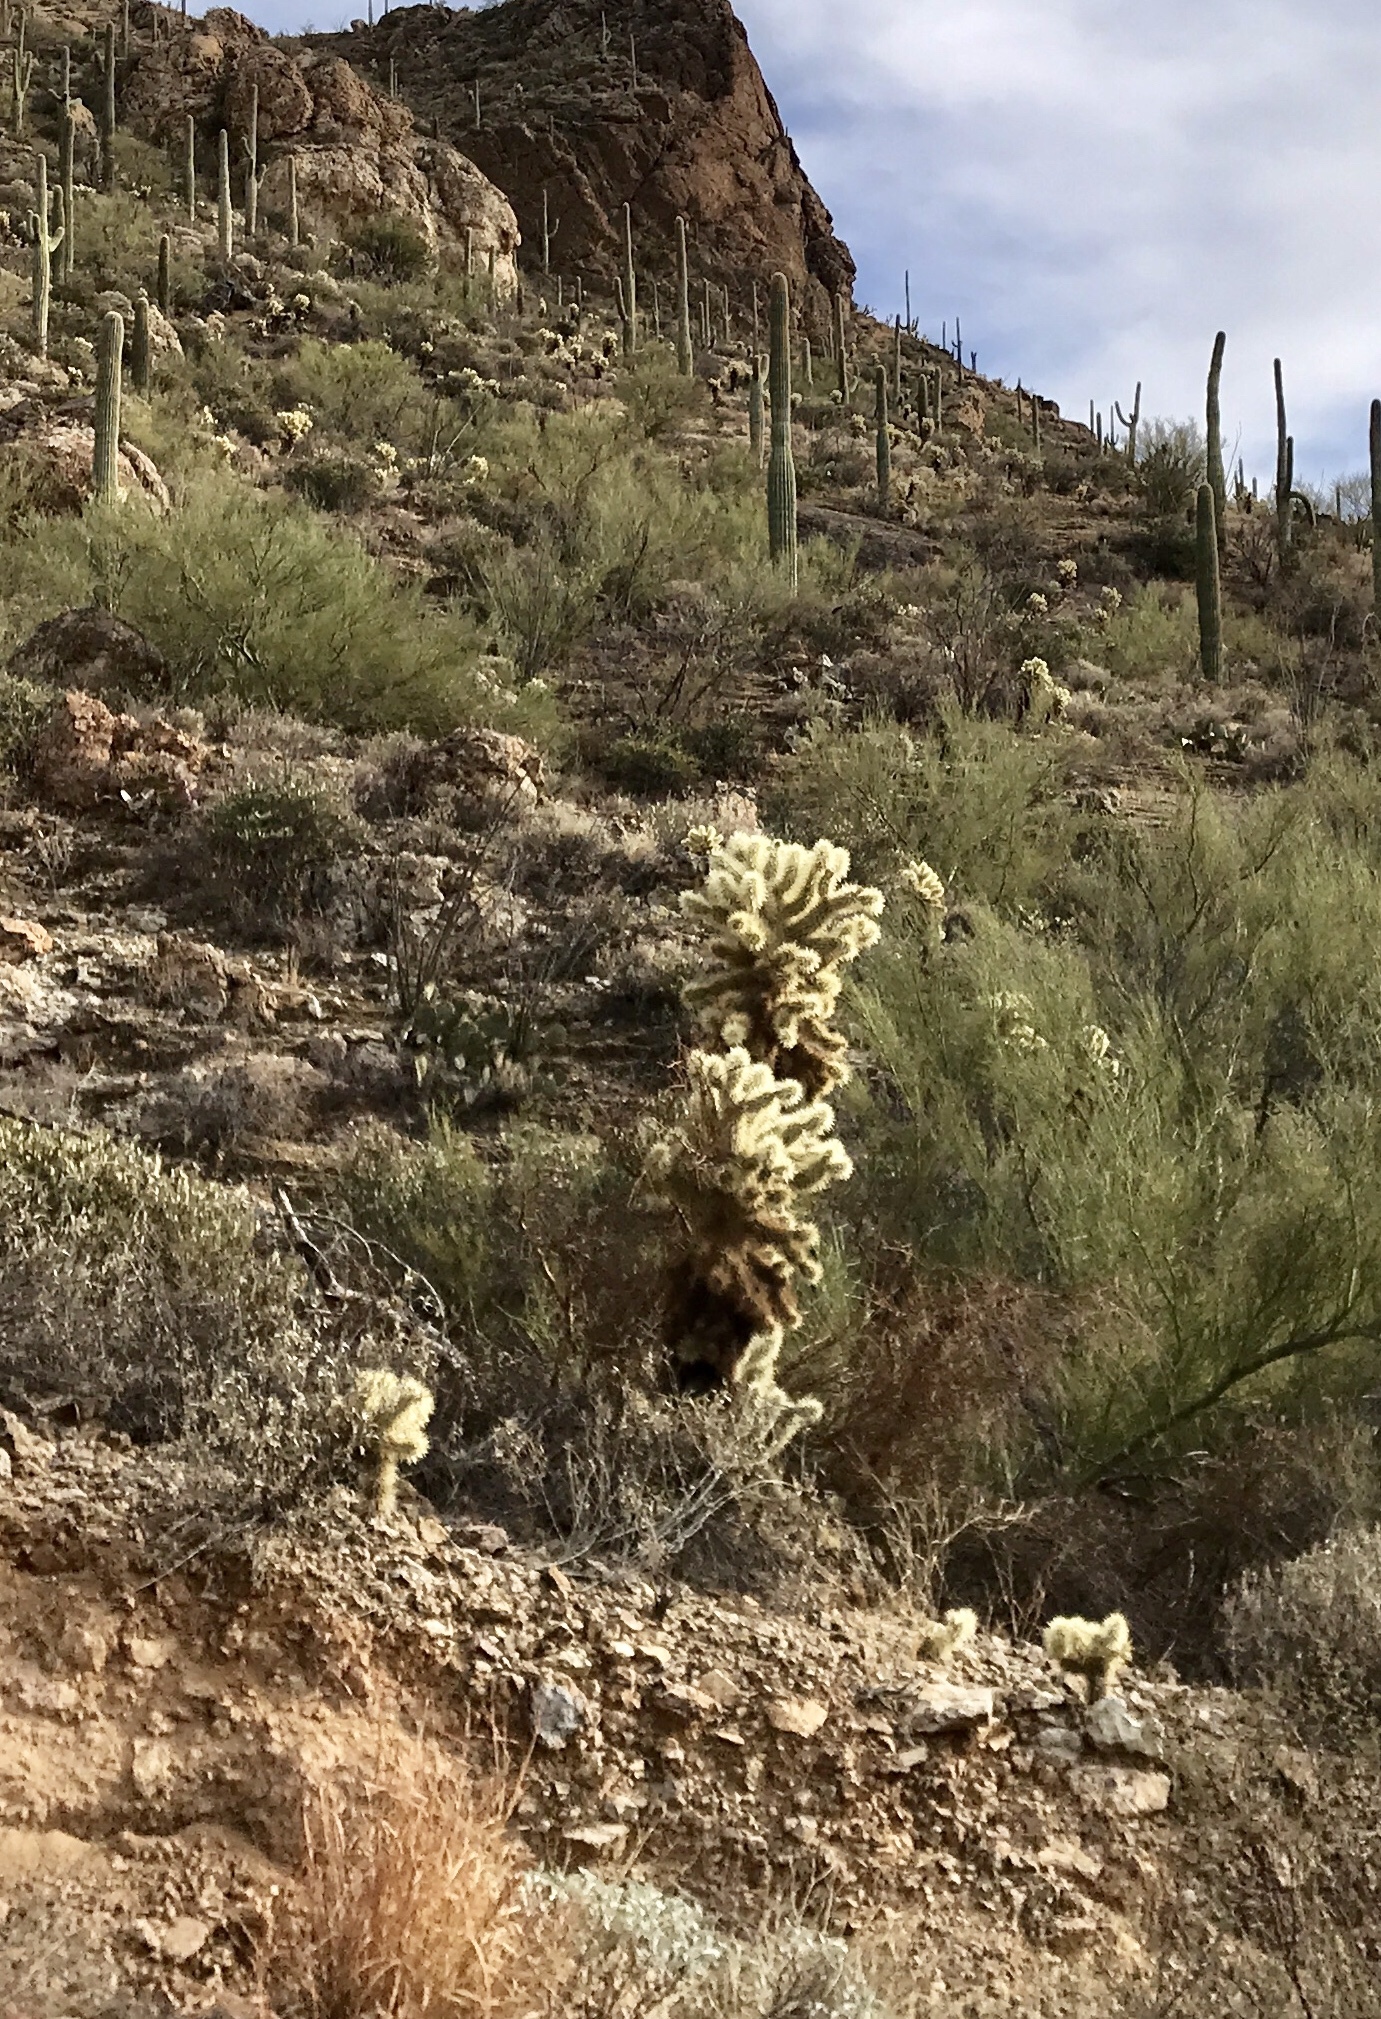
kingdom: Plantae
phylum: Tracheophyta
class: Magnoliopsida
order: Caryophyllales
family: Cactaceae
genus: Cylindropuntia
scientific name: Cylindropuntia fosbergii
